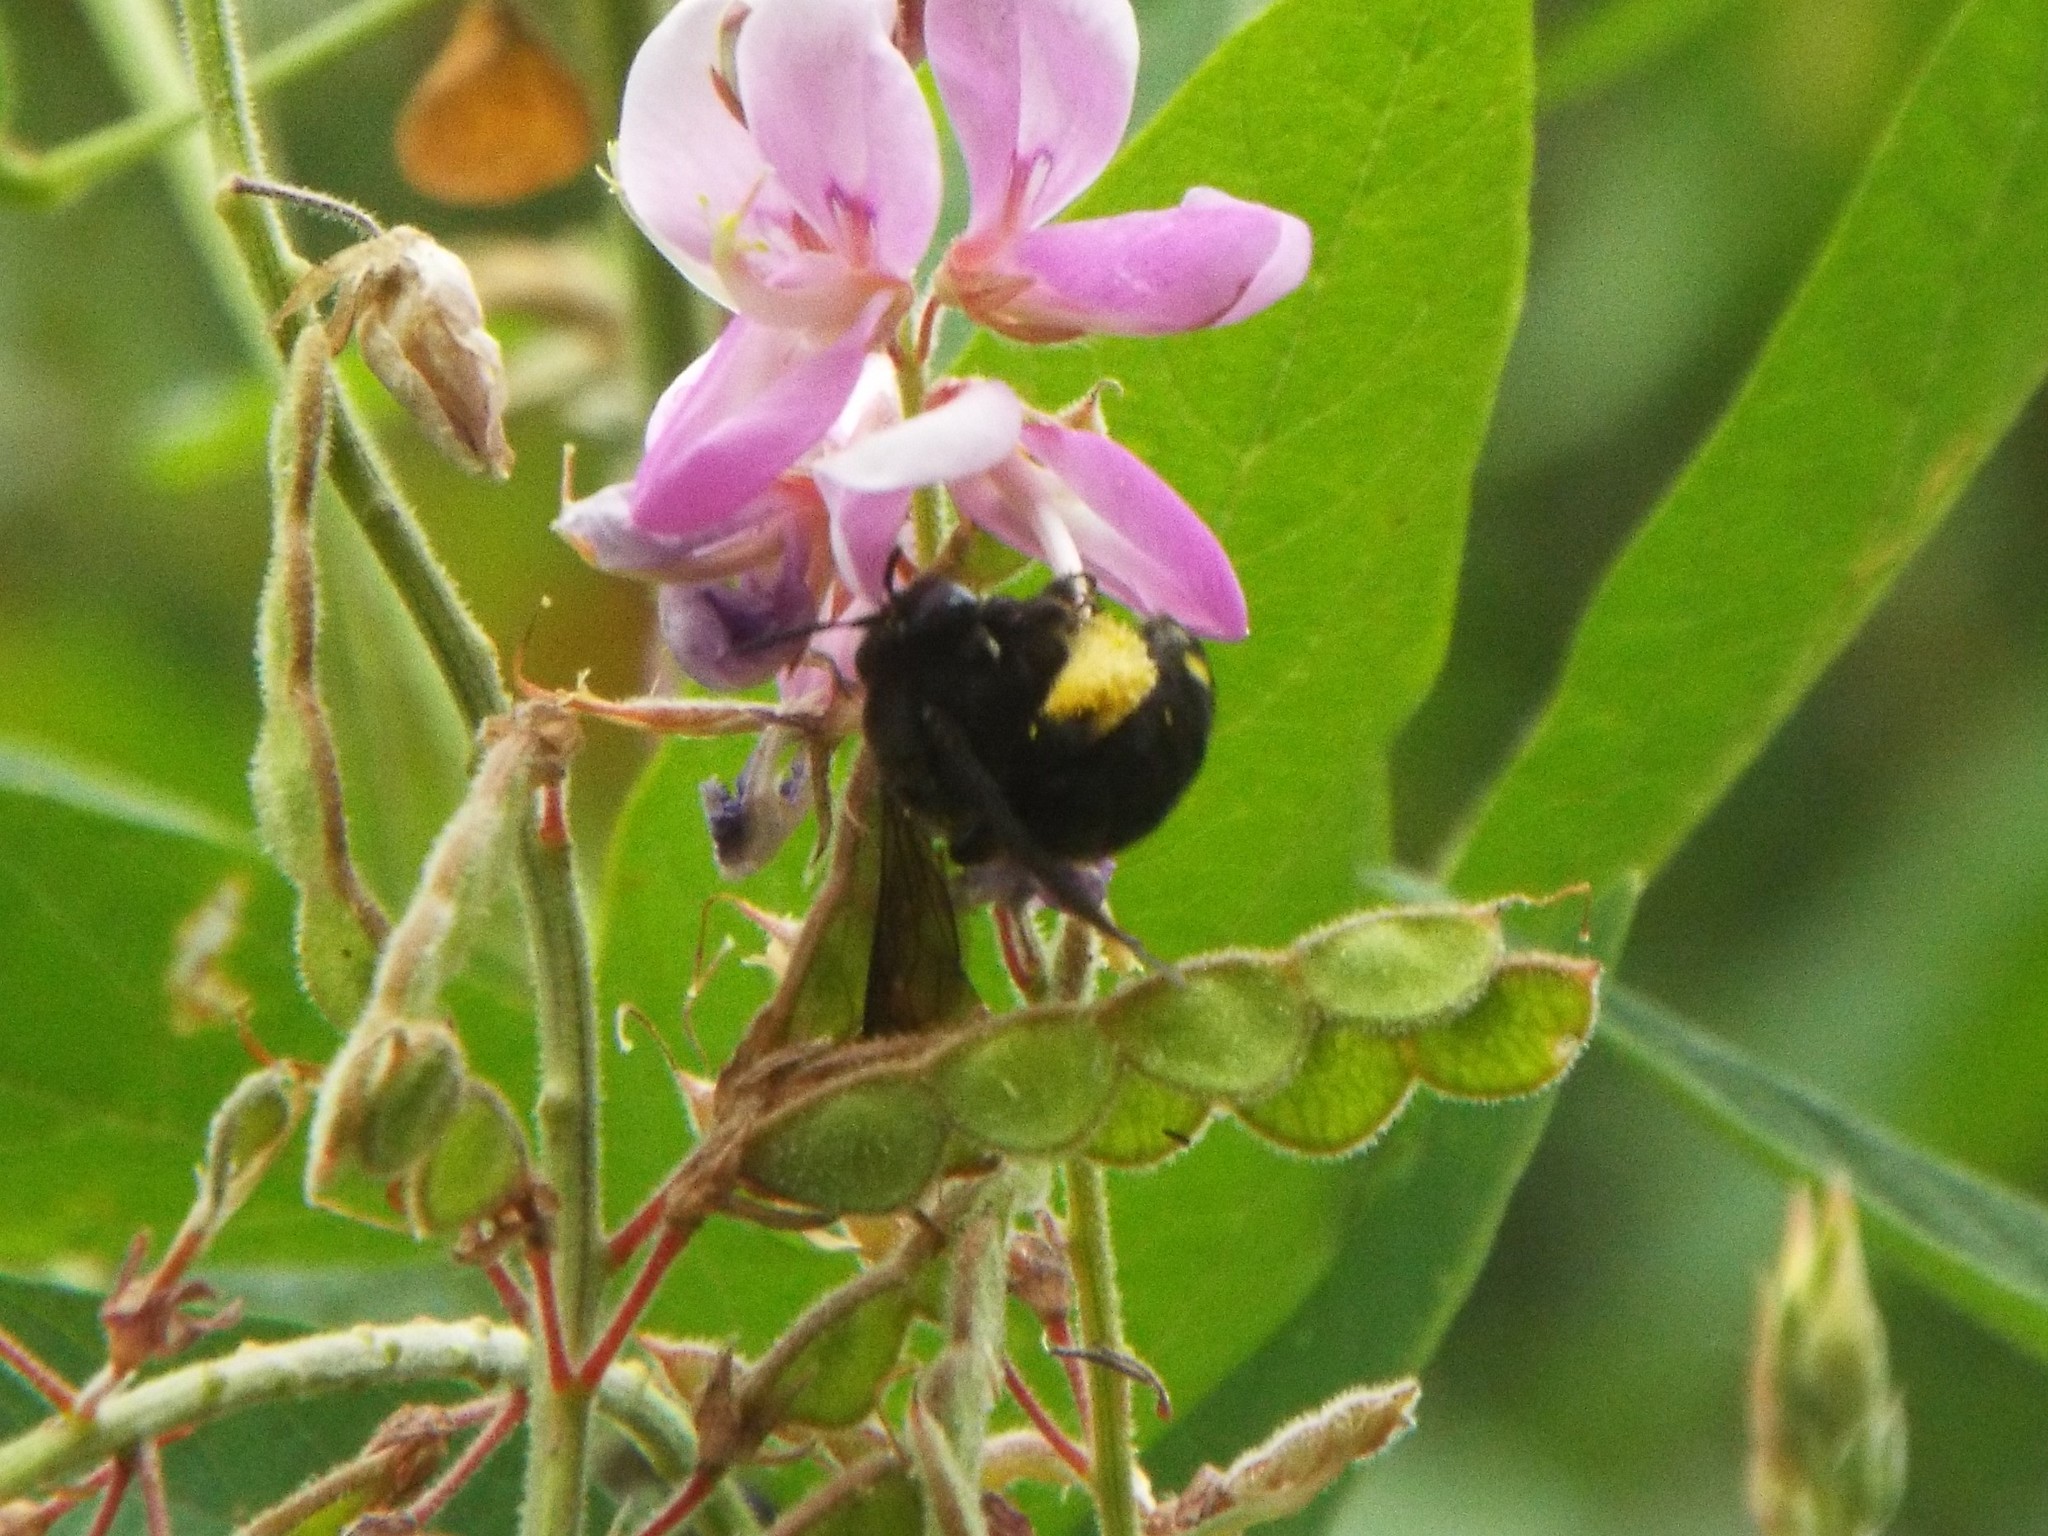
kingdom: Animalia
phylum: Arthropoda
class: Insecta
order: Hymenoptera
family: Apidae
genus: Melissodes
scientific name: Melissodes bimaculatus
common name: Two-spotted long-horned bee
